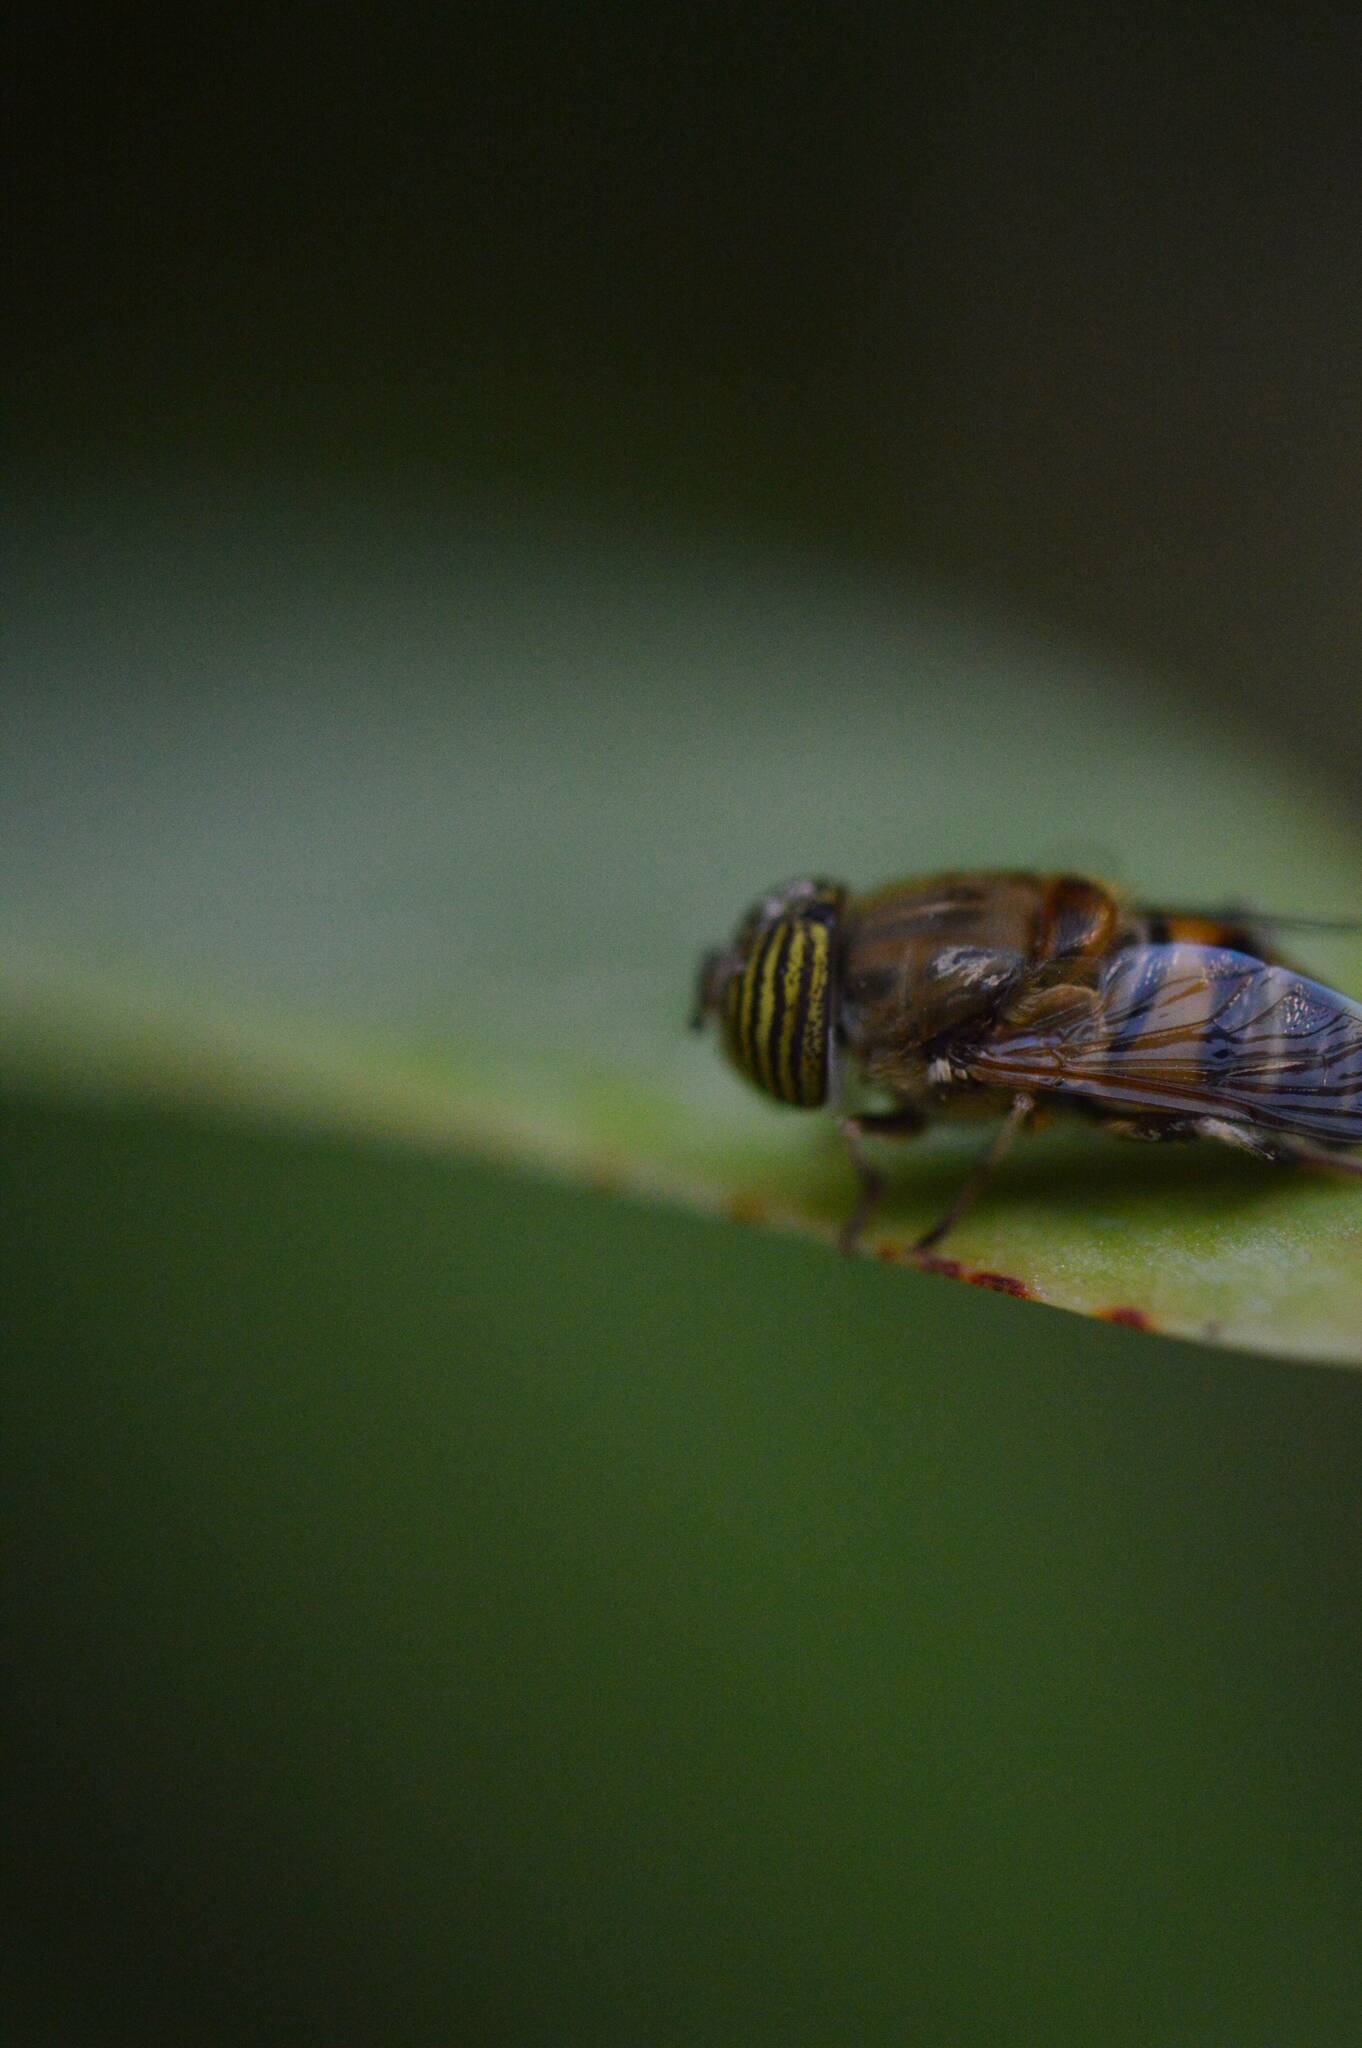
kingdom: Animalia
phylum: Arthropoda
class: Insecta
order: Diptera
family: Syrphidae
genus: Eristalinus
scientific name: Eristalinus taeniops
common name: Syrphid fly
